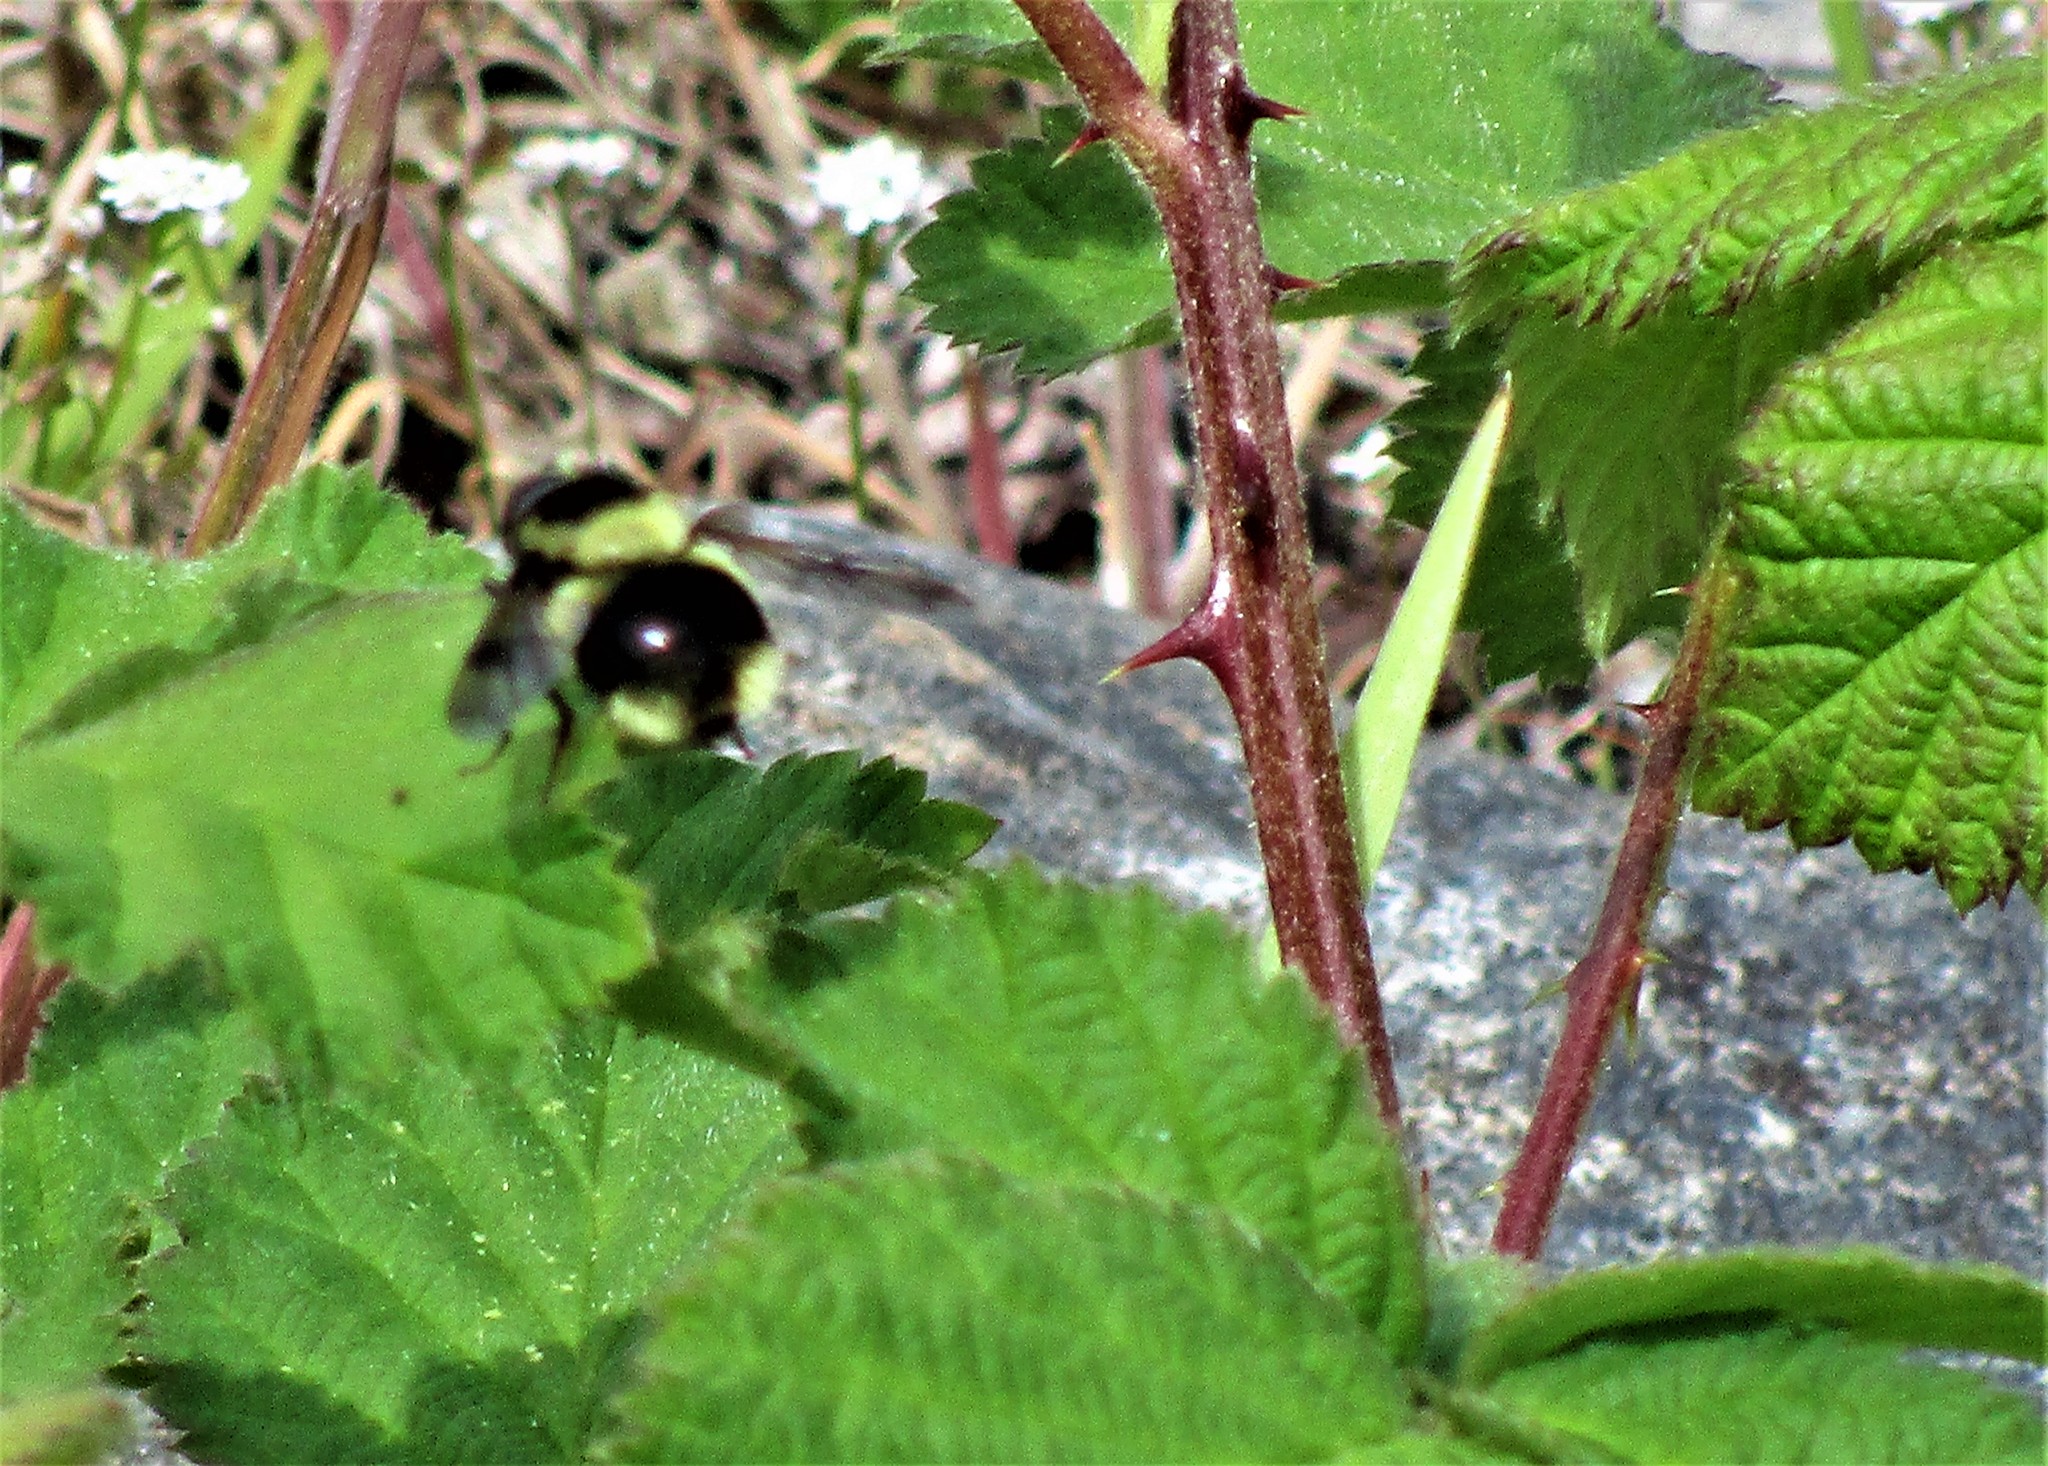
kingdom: Animalia
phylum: Arthropoda
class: Insecta
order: Diptera
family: Syrphidae
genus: Volucella
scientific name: Volucella facialis
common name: Yellow-faced swiftwing
